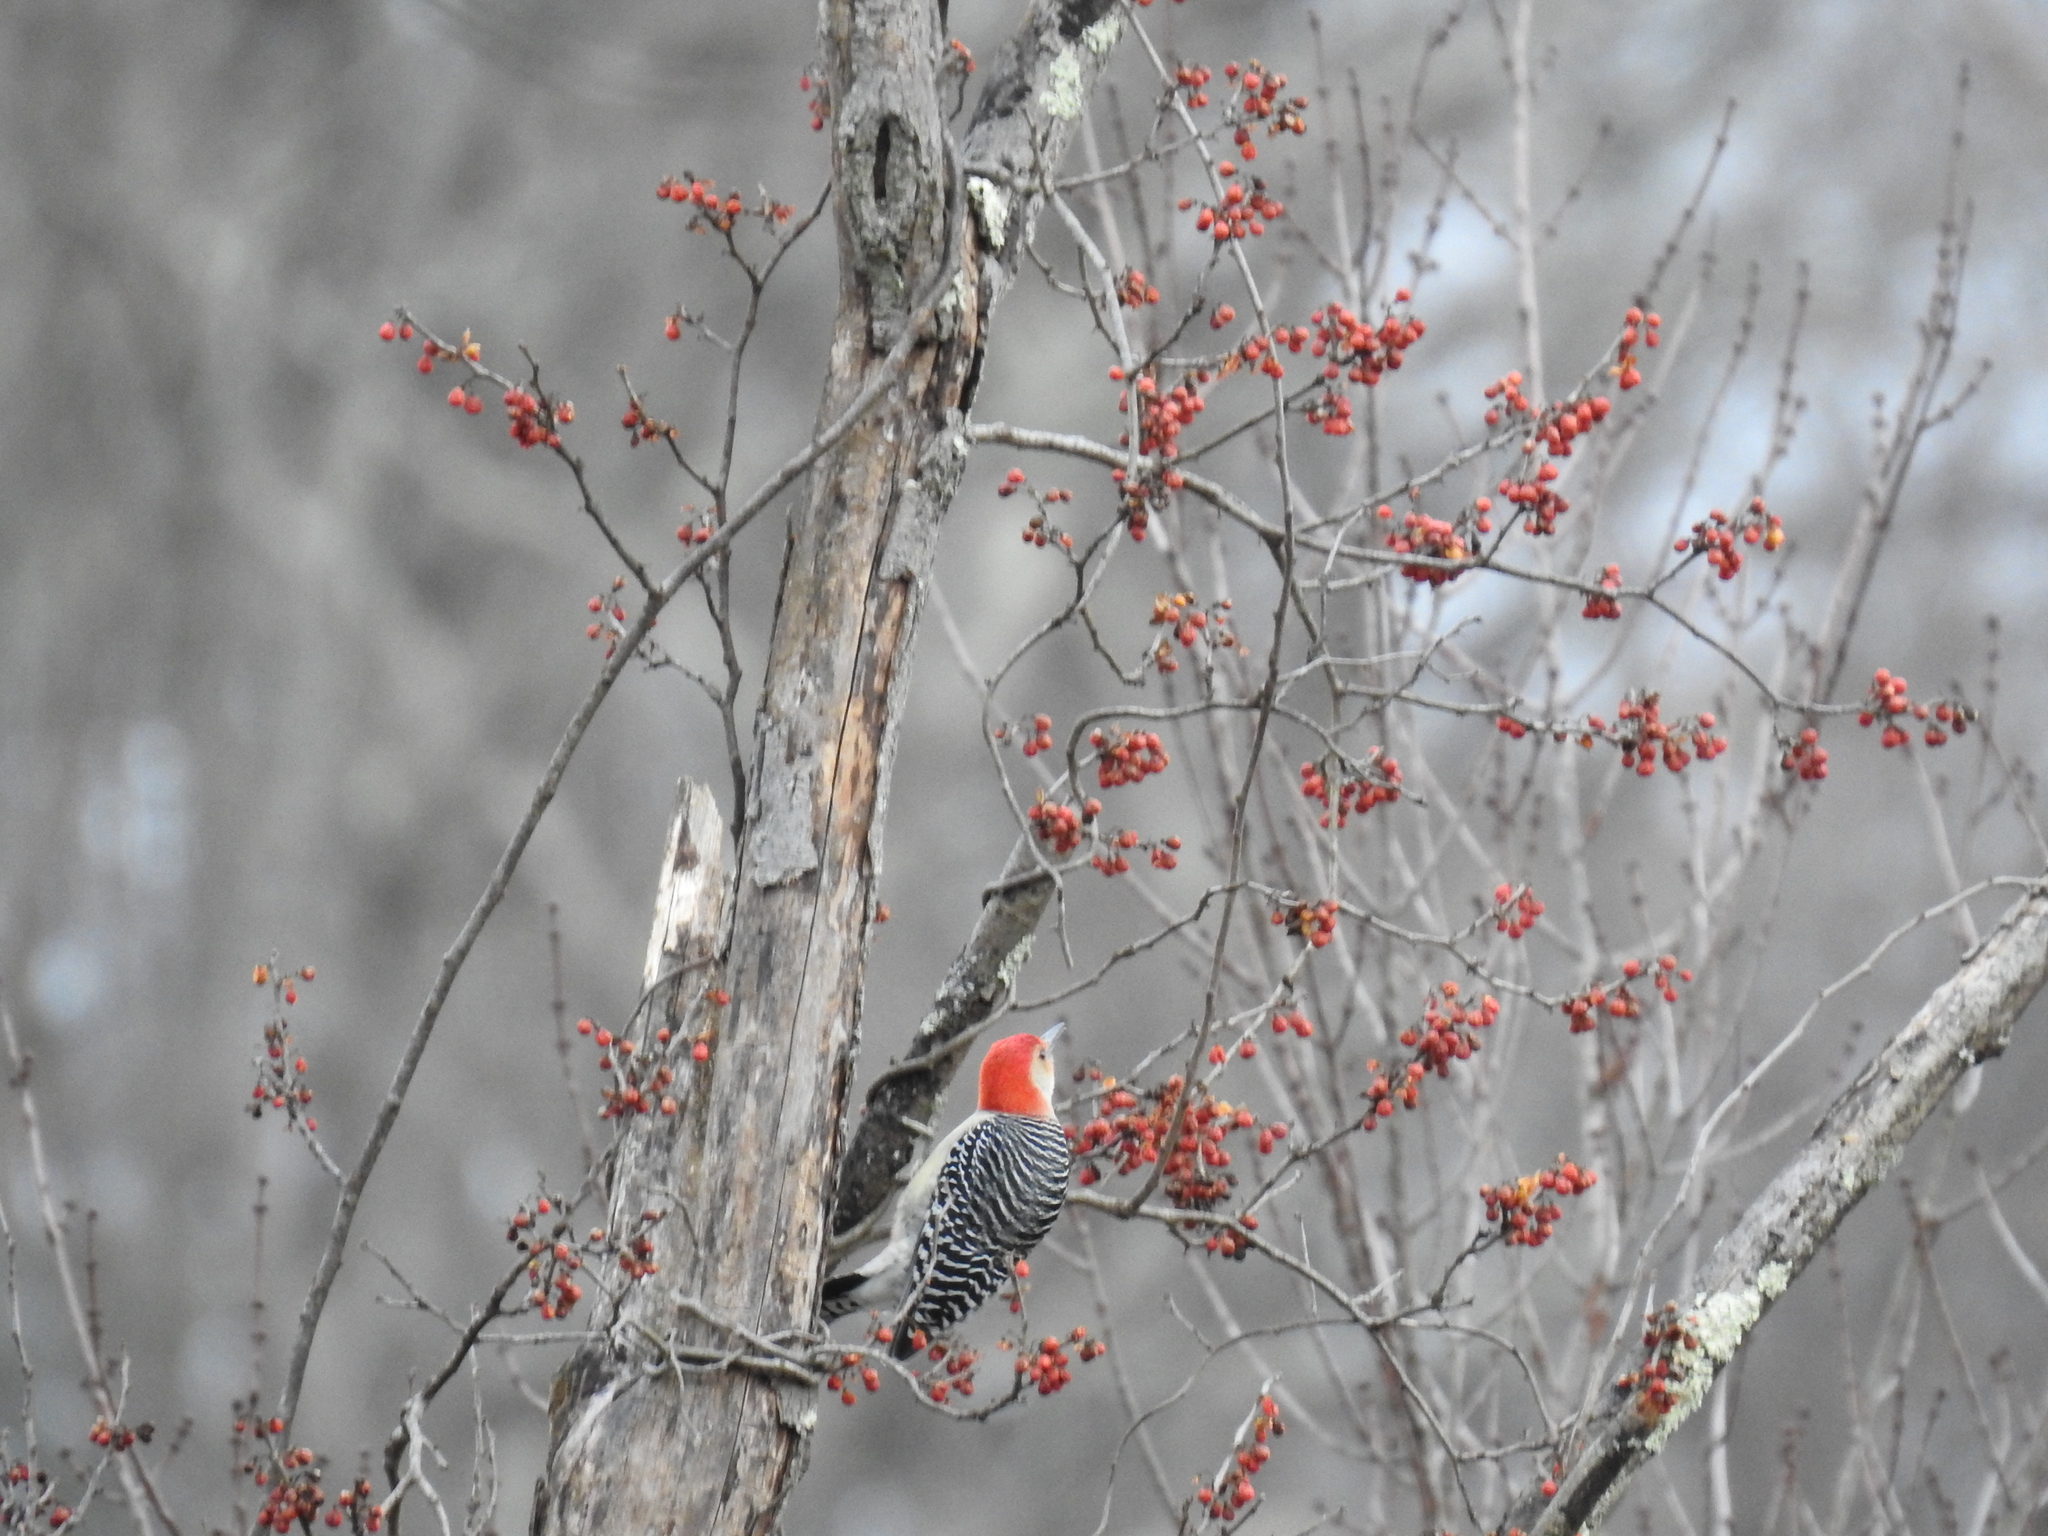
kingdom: Animalia
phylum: Chordata
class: Aves
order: Piciformes
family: Picidae
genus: Melanerpes
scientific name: Melanerpes carolinus
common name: Red-bellied woodpecker
